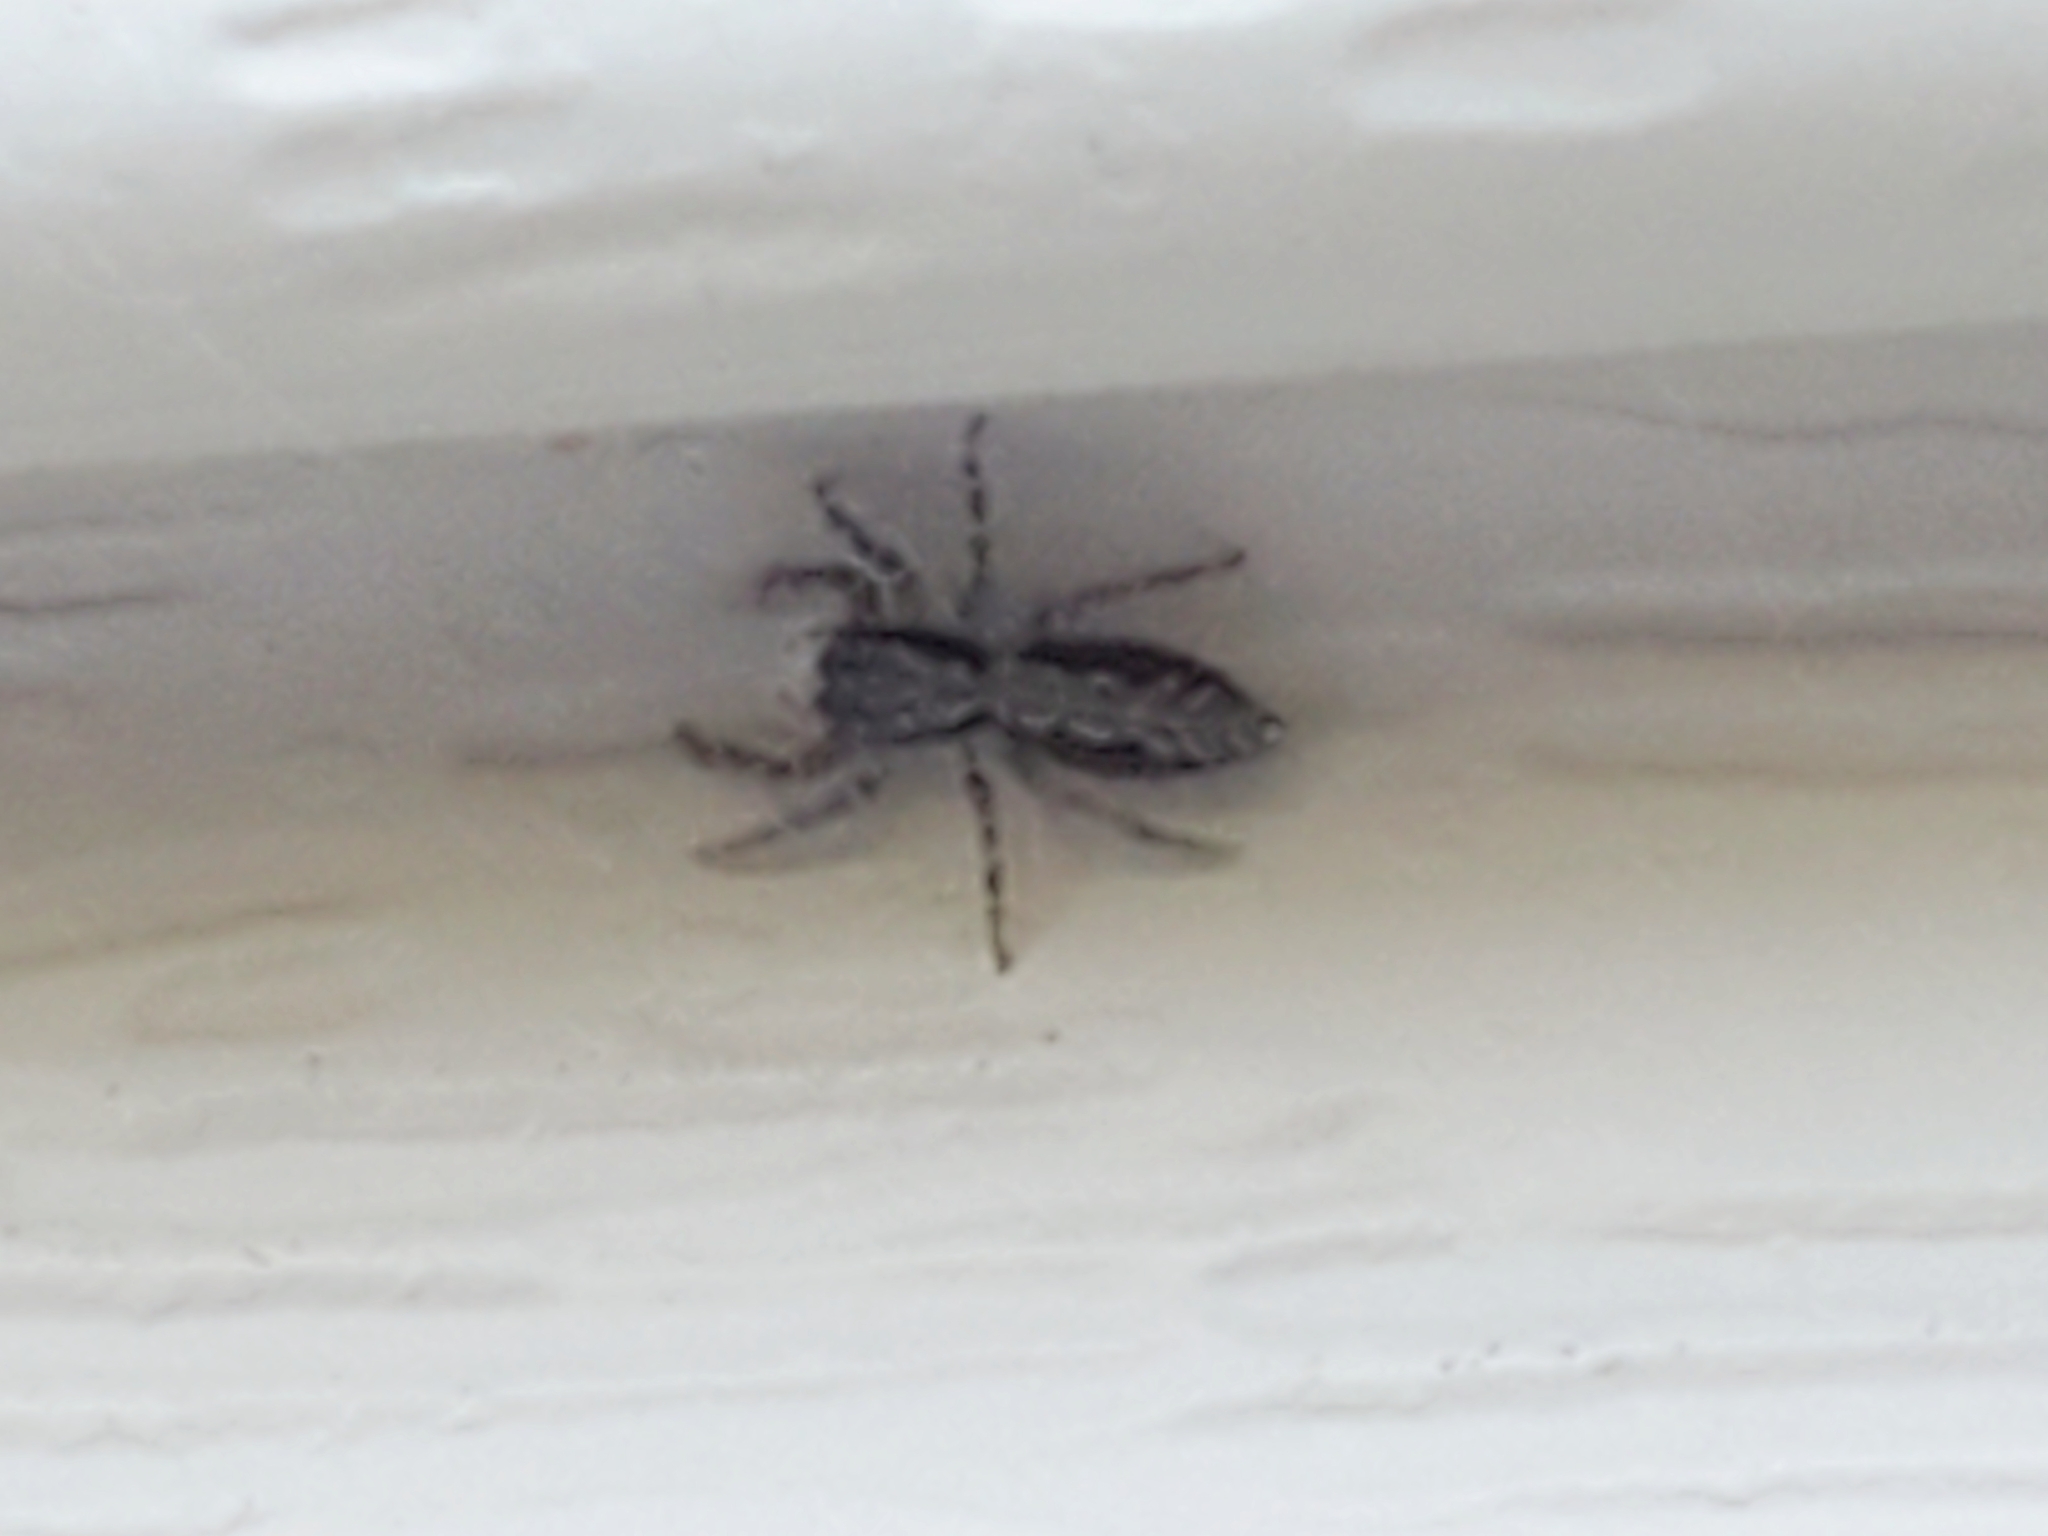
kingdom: Animalia
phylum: Arthropoda
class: Arachnida
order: Araneae
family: Salticidae
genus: Platycryptus
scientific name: Platycryptus californicus
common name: Jumping spiders
